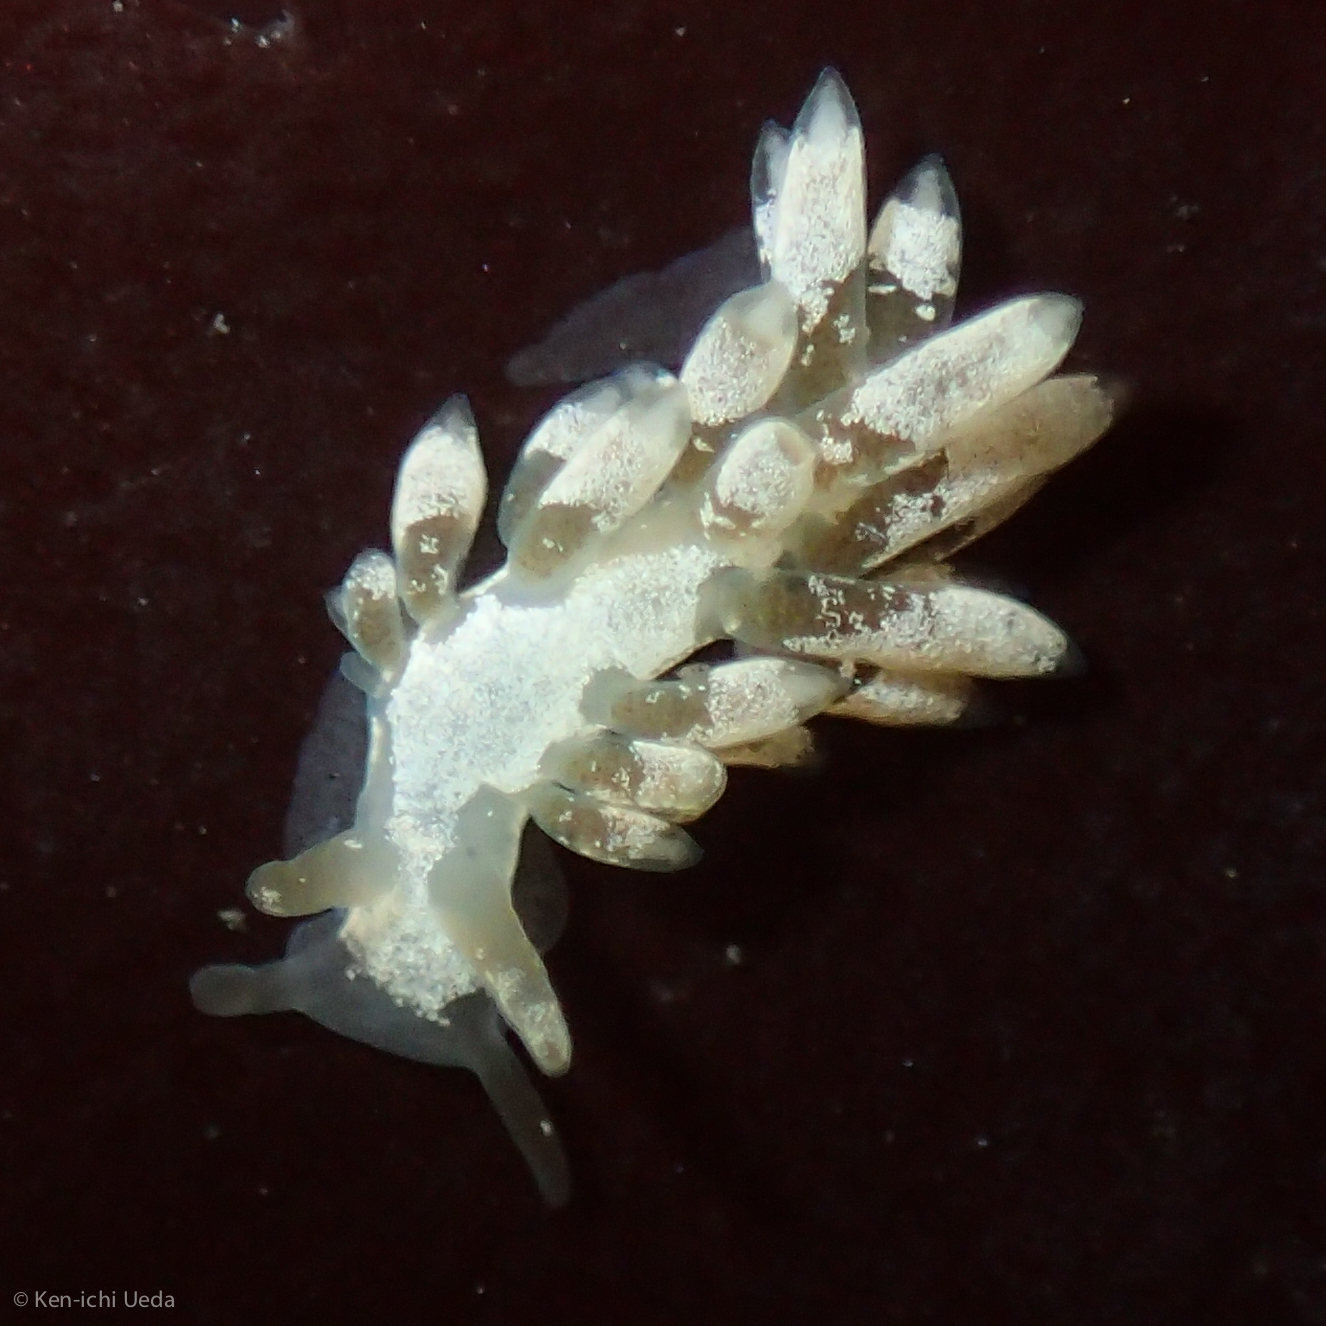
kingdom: Animalia
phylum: Mollusca
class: Gastropoda
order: Nudibranchia
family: Trinchesiidae
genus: Trinchesia
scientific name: Trinchesia albocrusta
